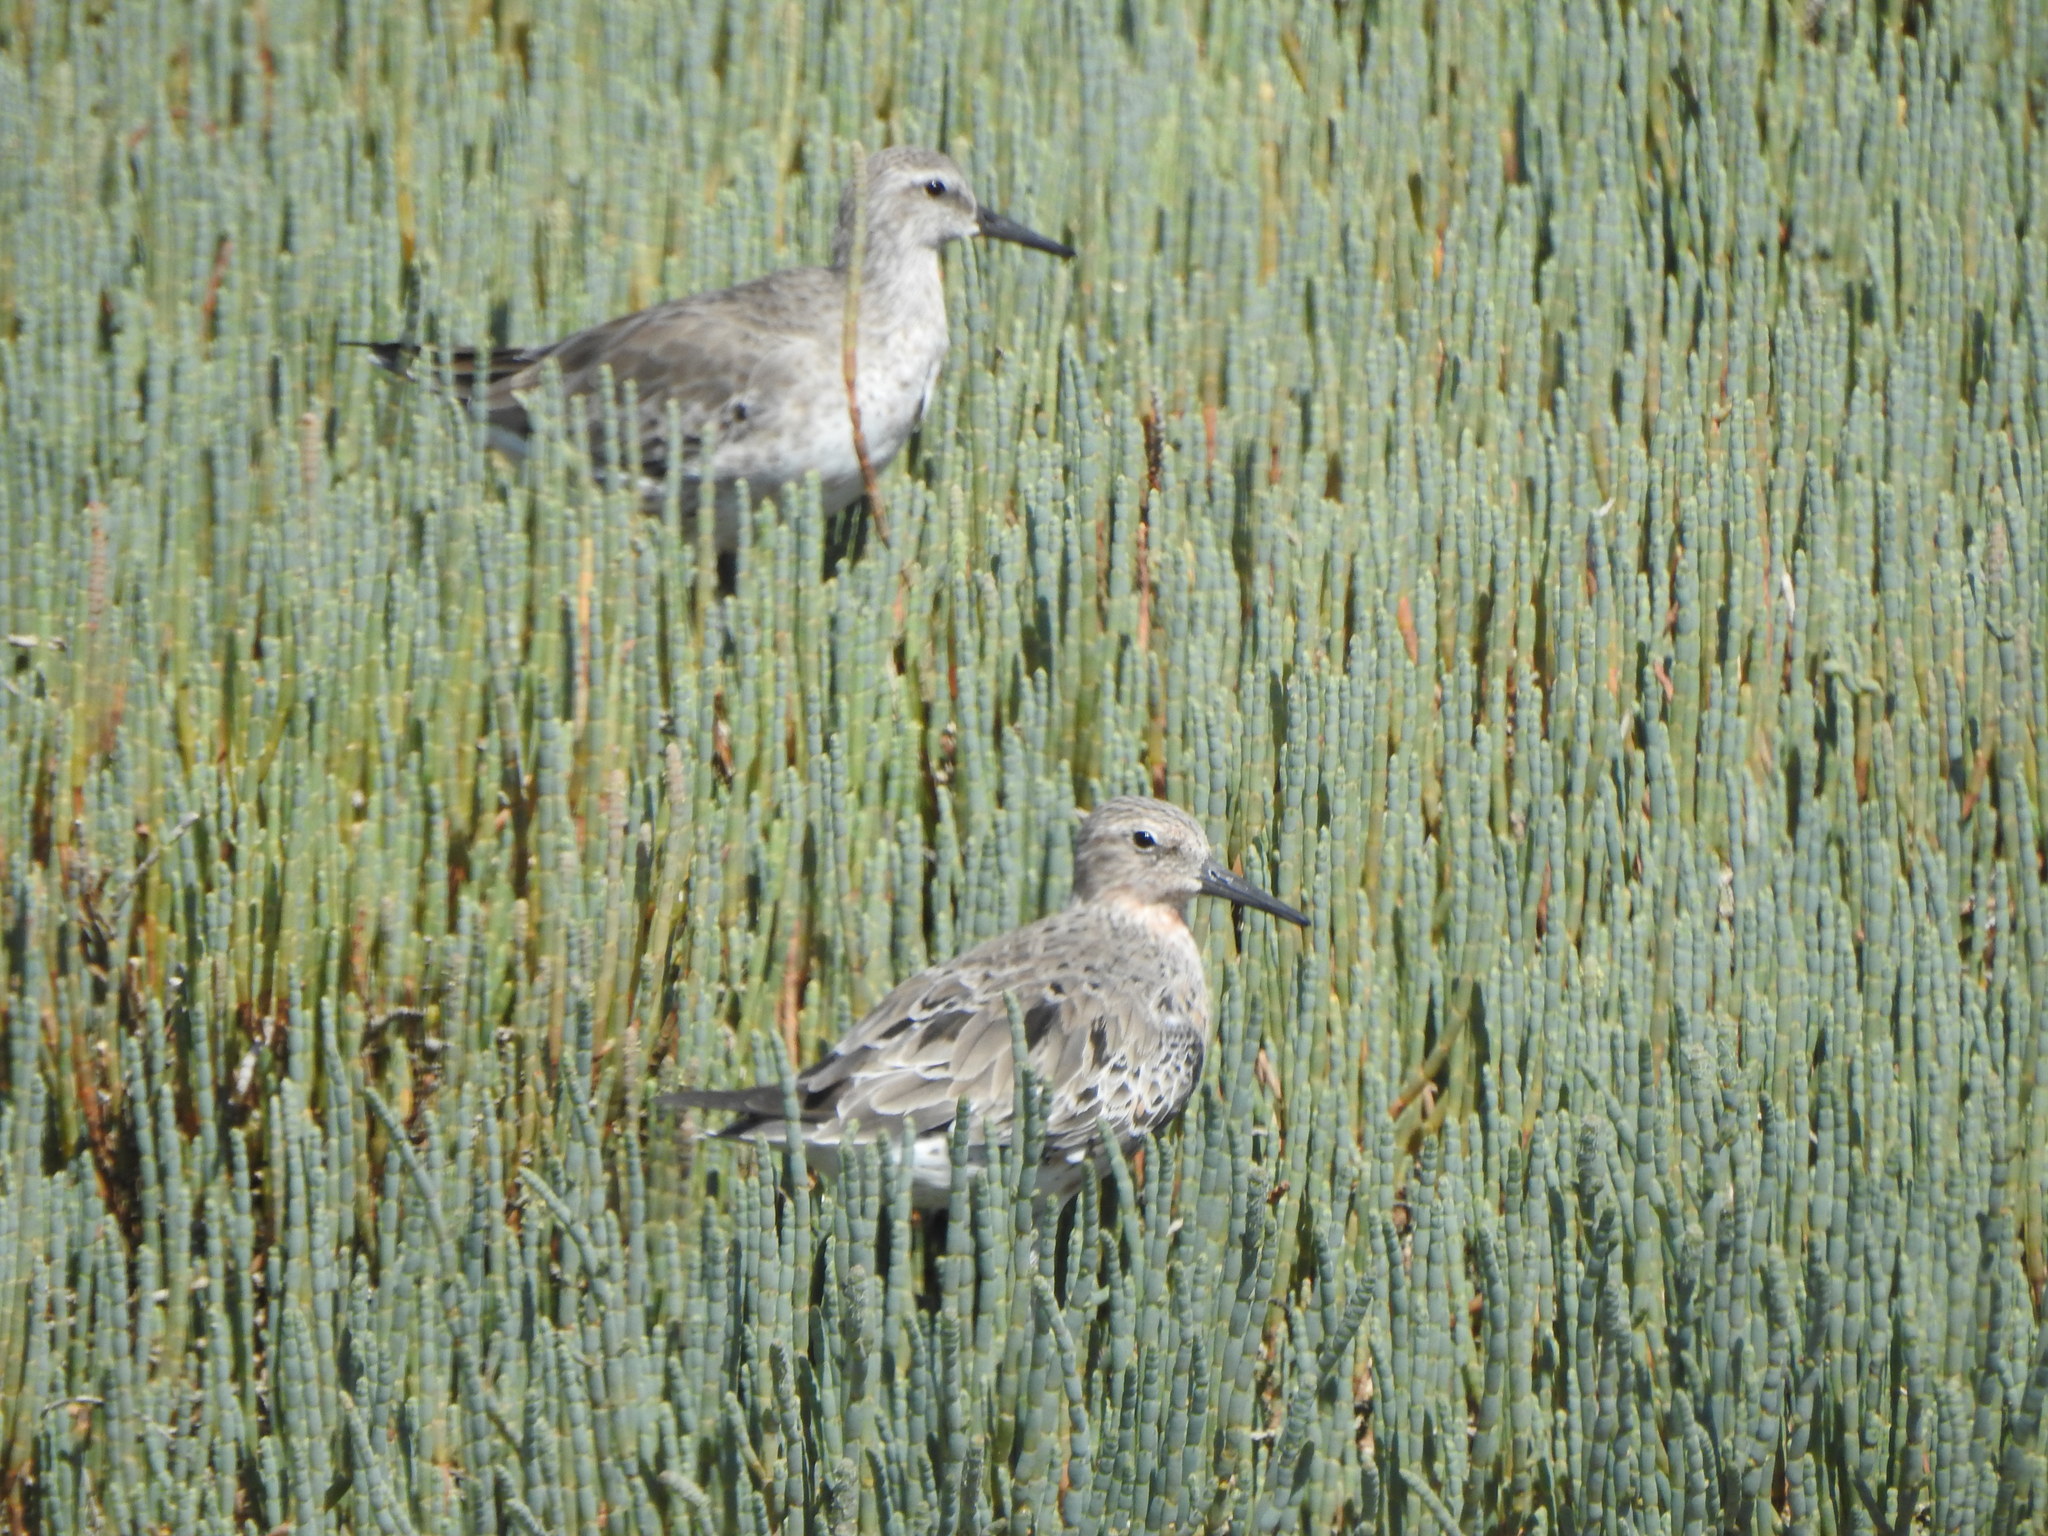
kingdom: Animalia
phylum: Chordata
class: Aves
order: Charadriiformes
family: Scolopacidae
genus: Calidris
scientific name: Calidris canutus
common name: Red knot
